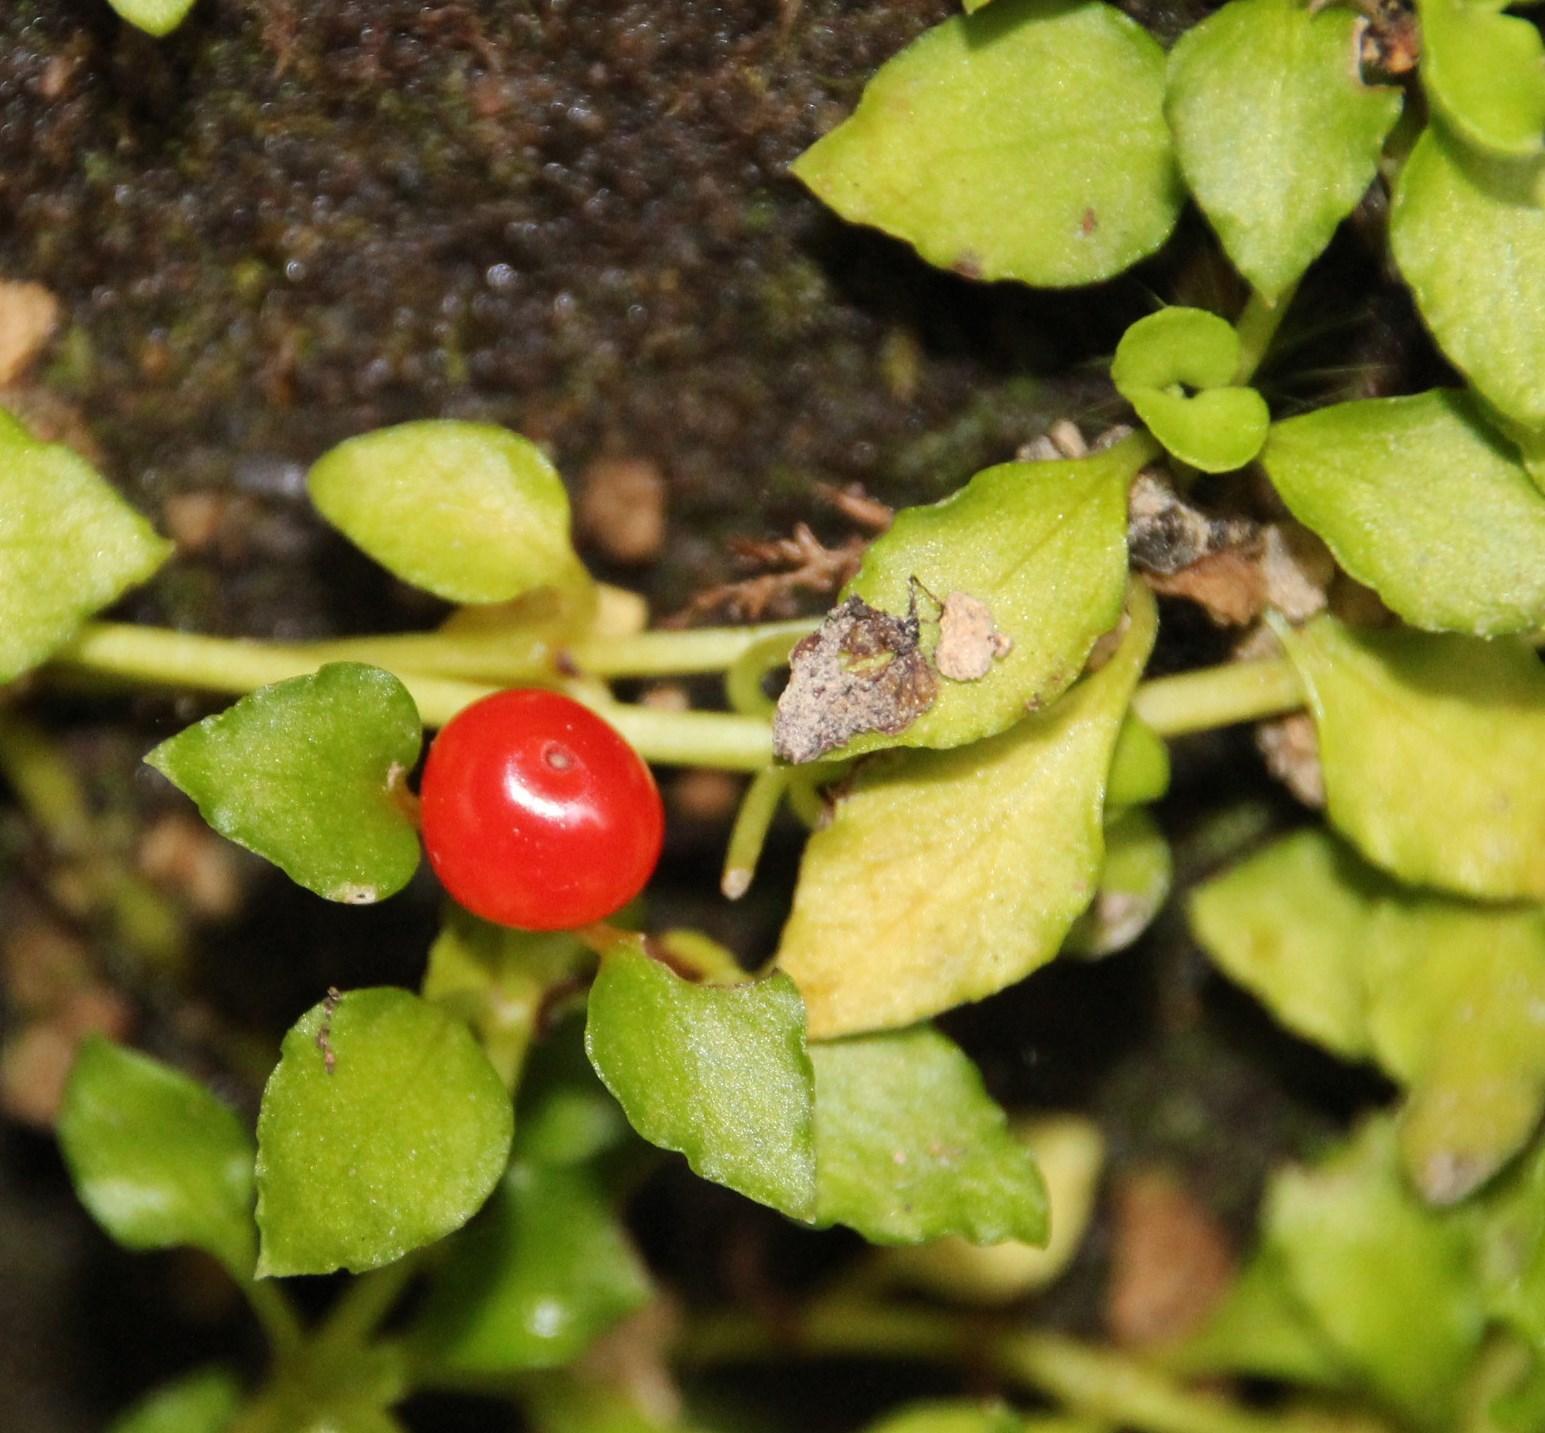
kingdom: Plantae
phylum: Tracheophyta
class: Magnoliopsida
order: Gentianales
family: Rubiaceae
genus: Nertera
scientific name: Nertera granadensis
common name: Beadplant
